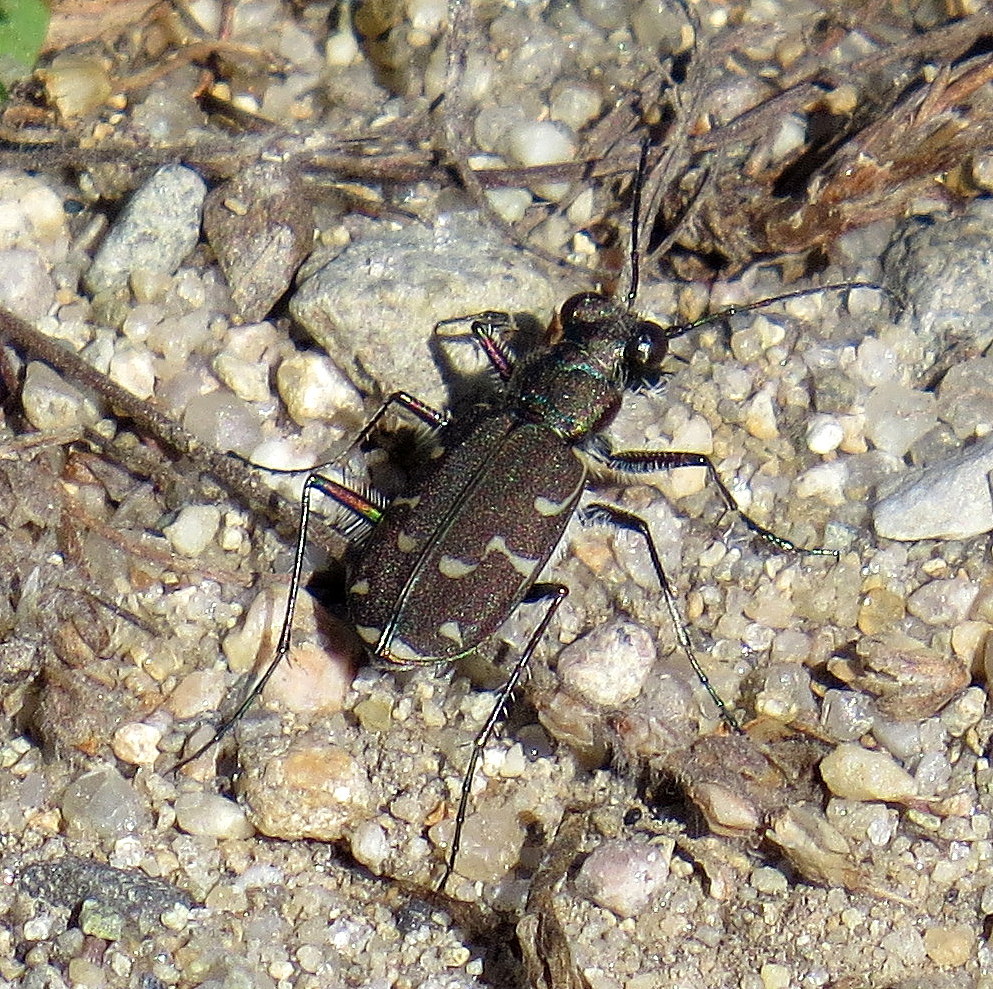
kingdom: Animalia
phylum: Arthropoda
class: Insecta
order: Coleoptera
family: Carabidae
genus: Cicindela
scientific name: Cicindela duodecimguttata
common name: Twelve-spotted tiger beetle
